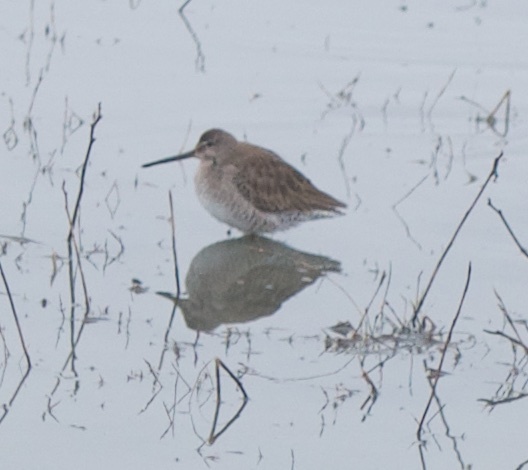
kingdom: Animalia
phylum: Chordata
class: Aves
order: Charadriiformes
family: Scolopacidae
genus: Limnodromus
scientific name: Limnodromus scolopaceus
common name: Long-billed dowitcher
